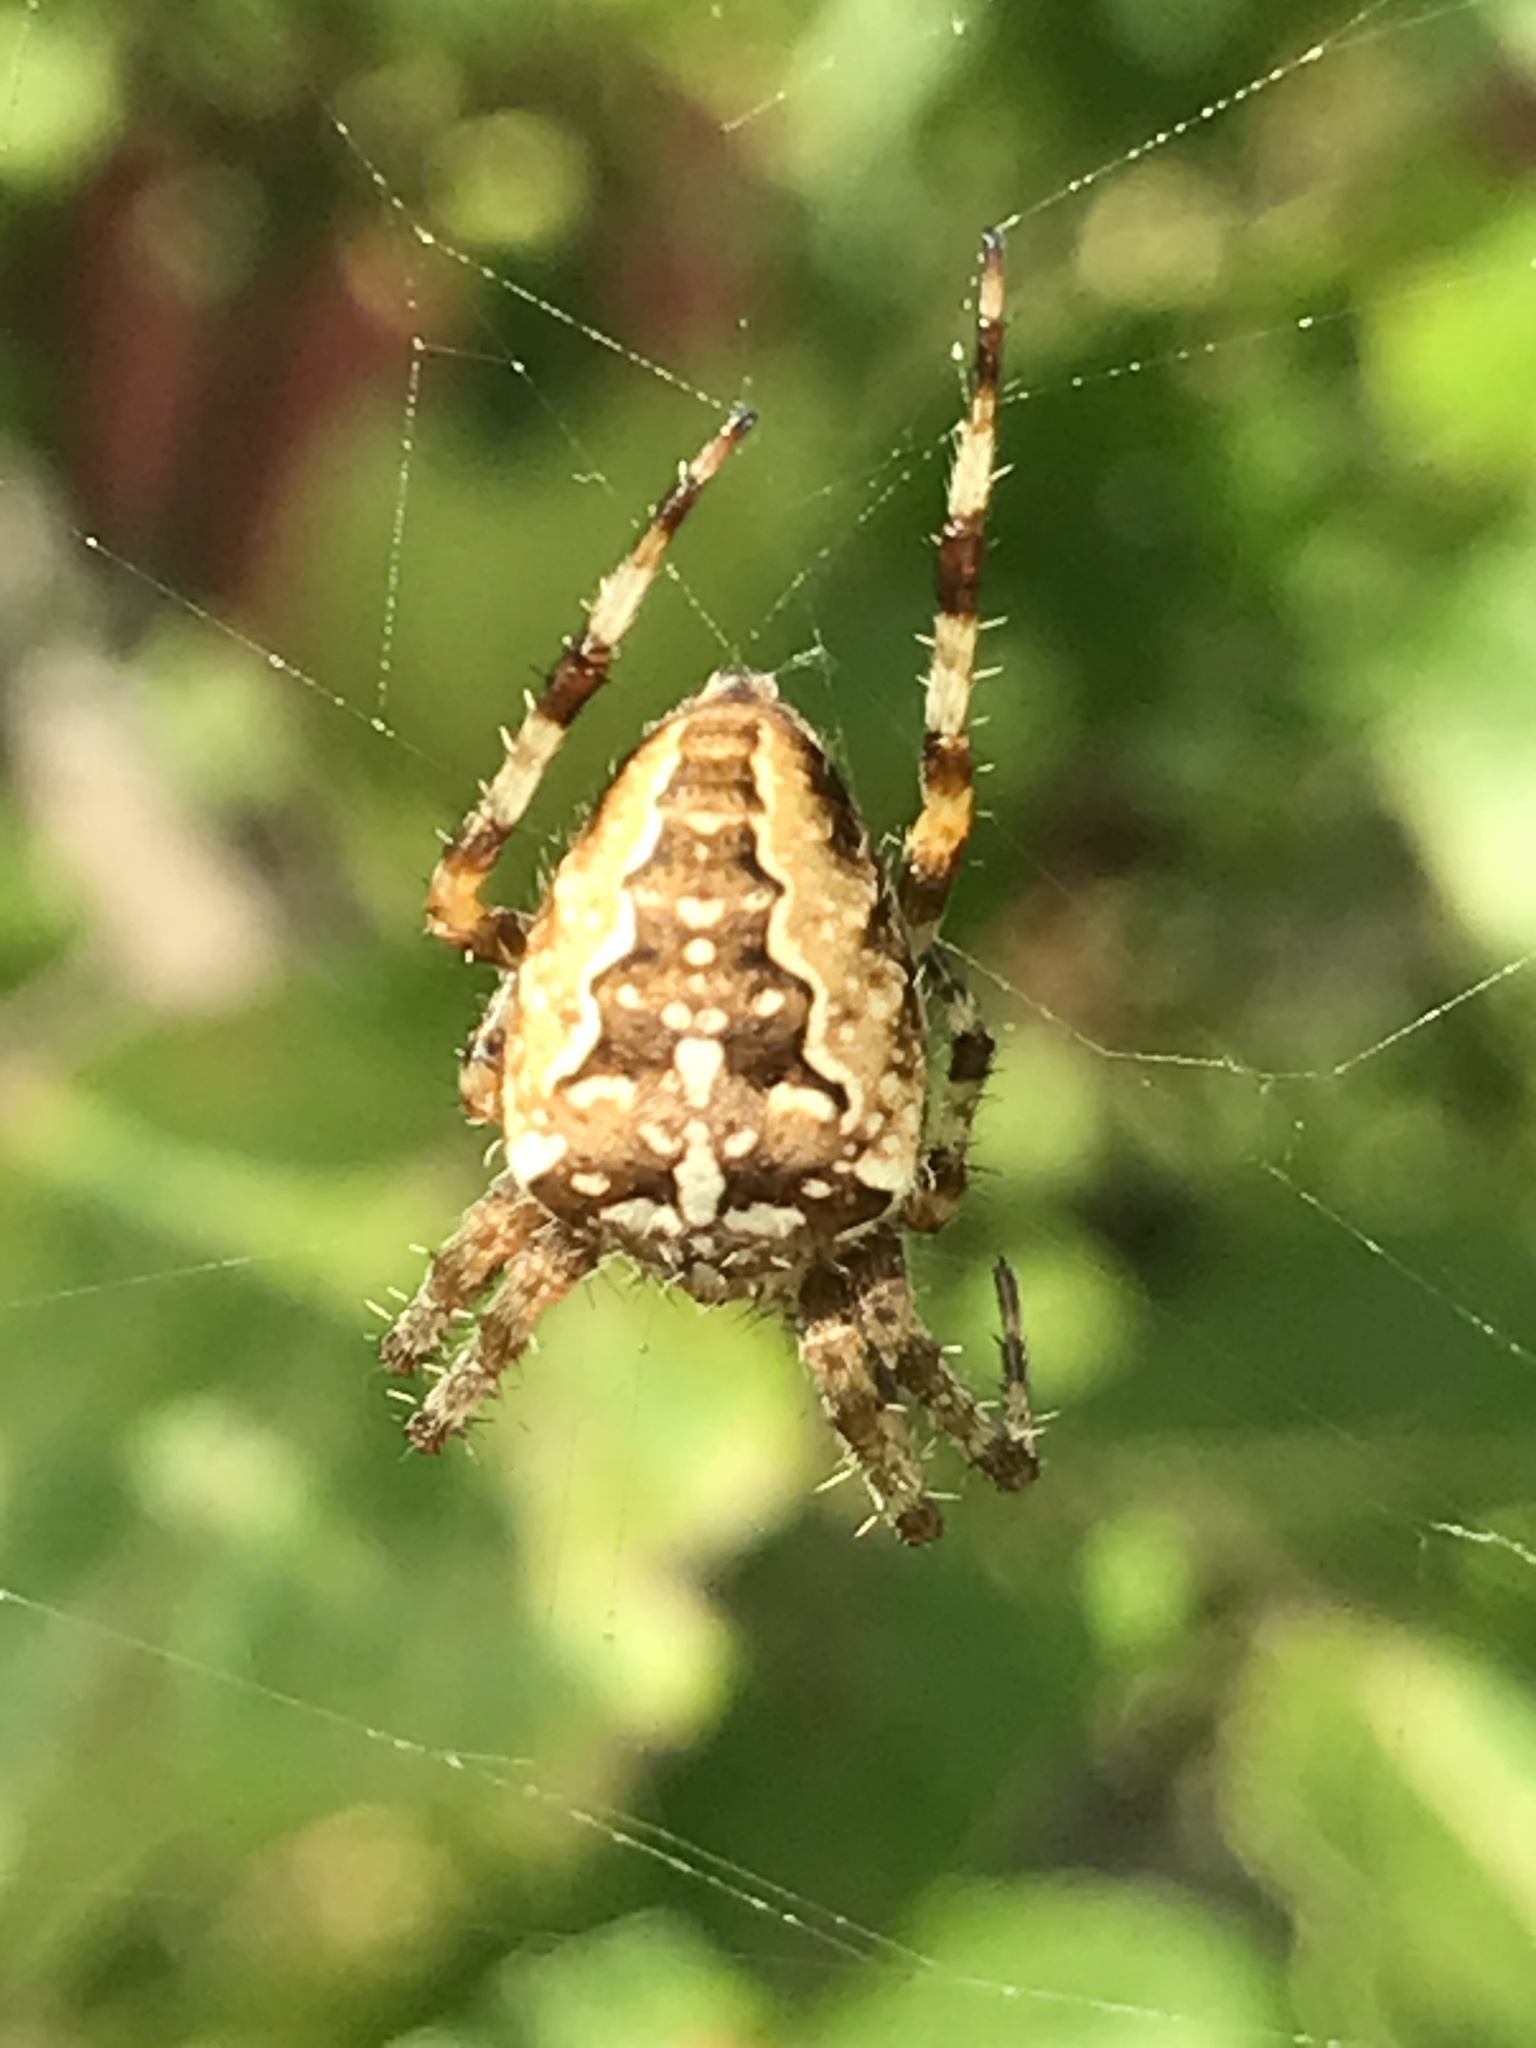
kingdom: Animalia
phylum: Arthropoda
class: Arachnida
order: Araneae
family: Araneidae
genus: Araneus
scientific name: Araneus diadematus
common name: Cross orbweaver
